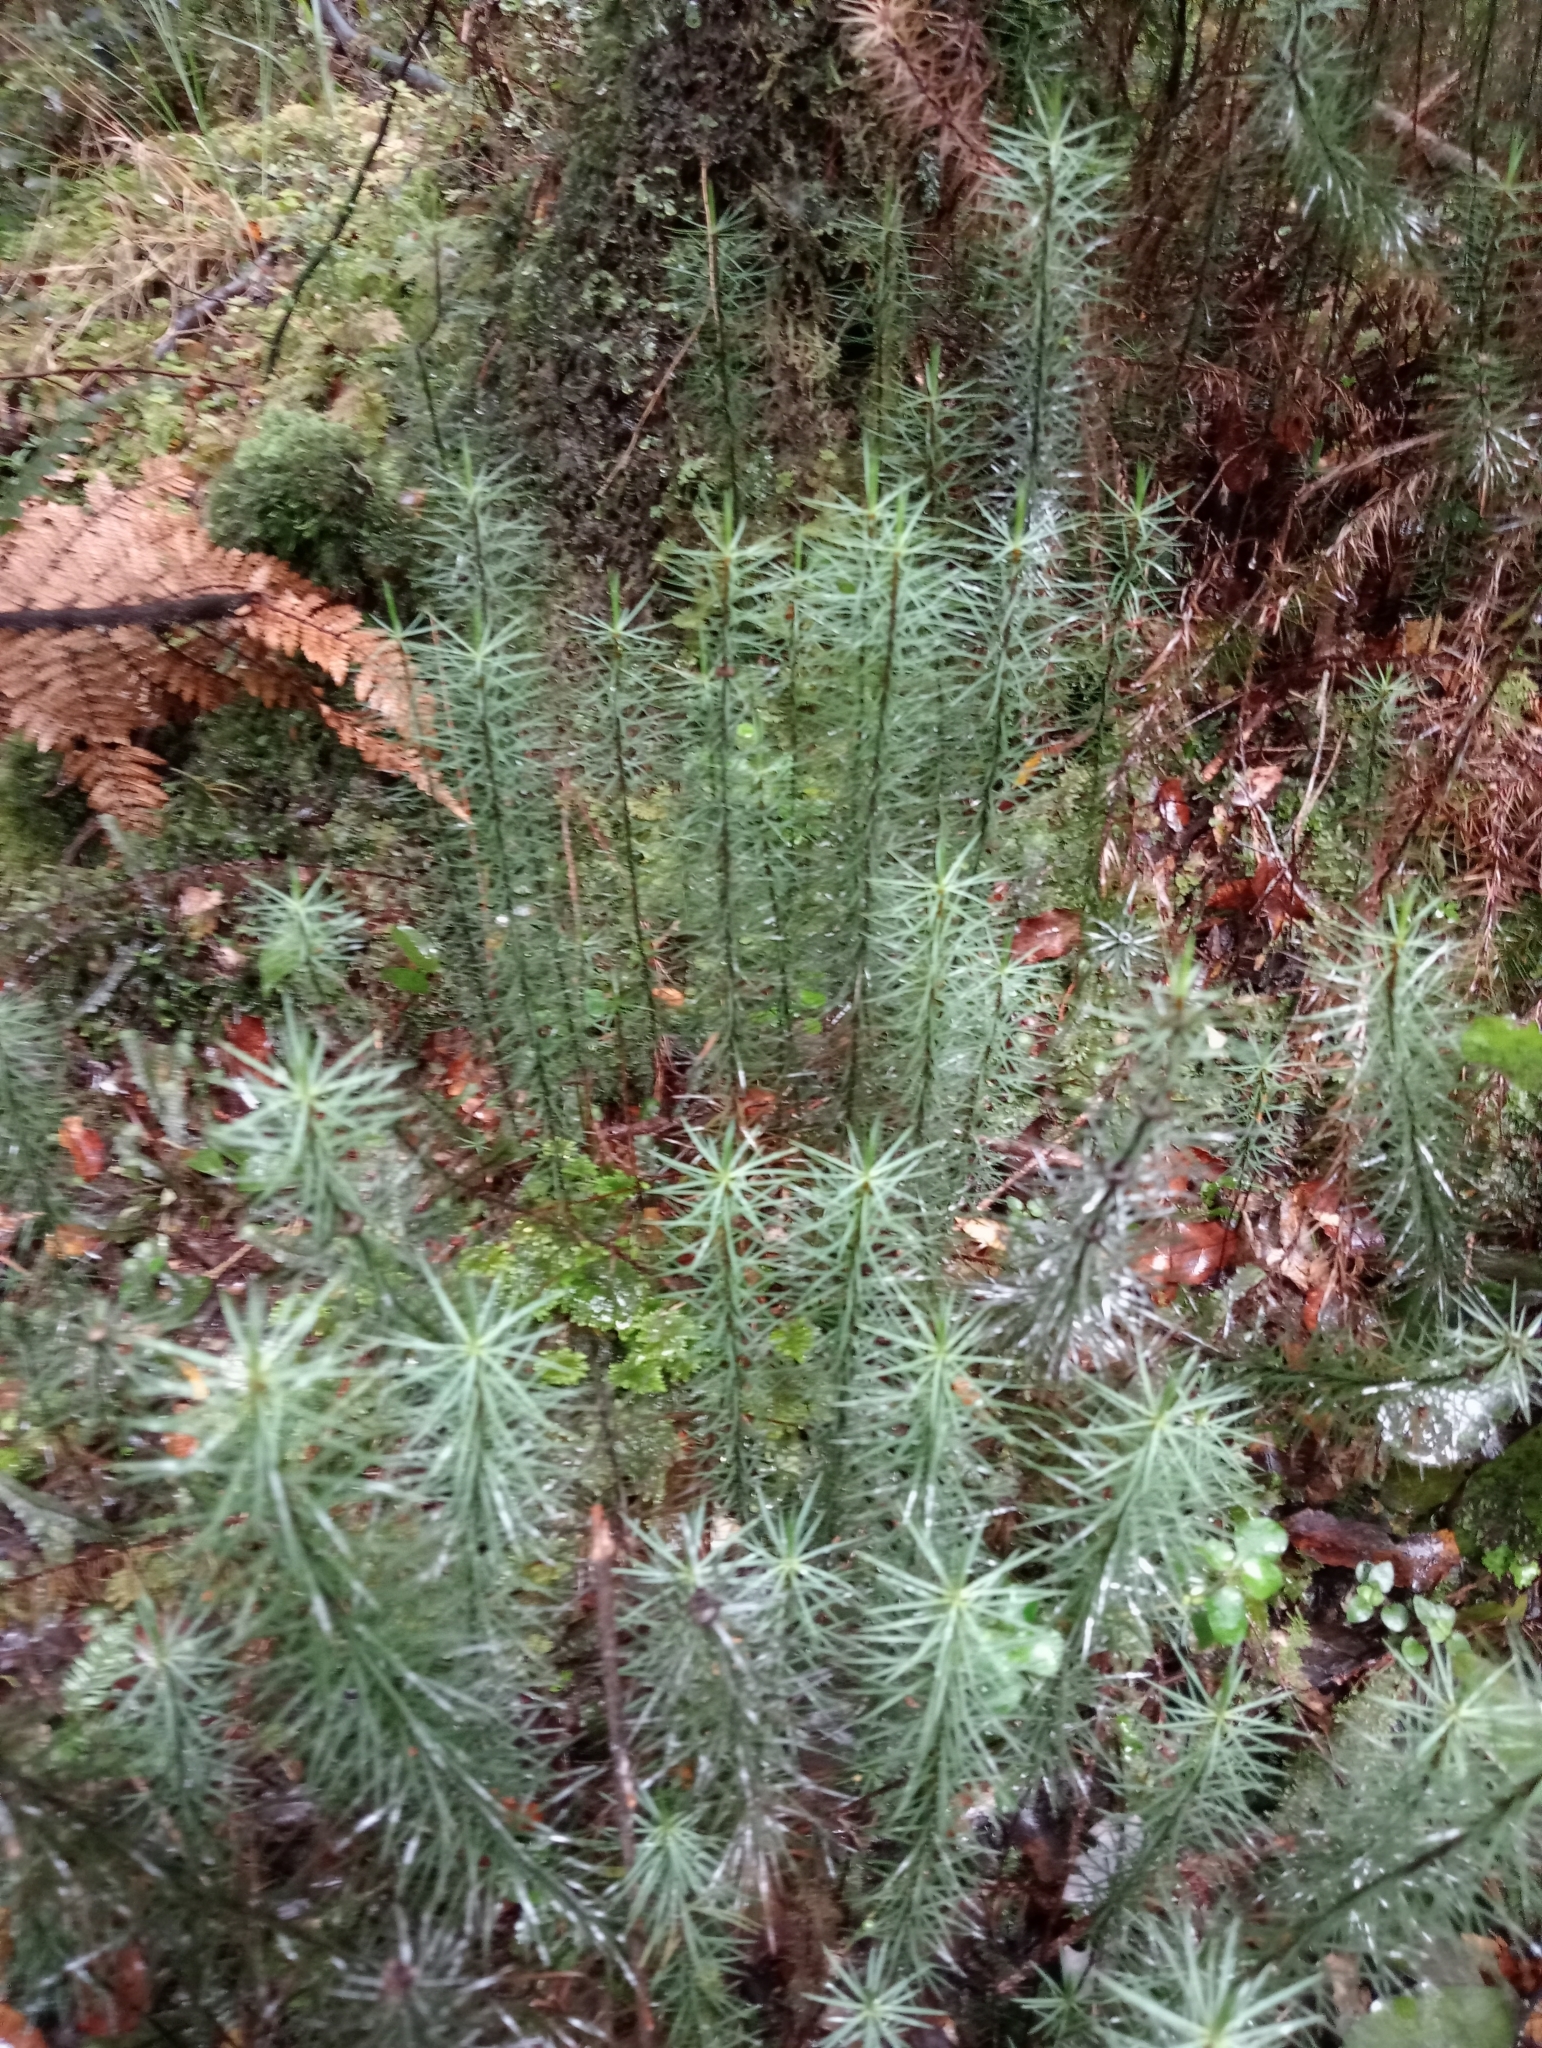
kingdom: Plantae
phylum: Bryophyta
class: Polytrichopsida
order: Polytrichales
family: Polytrichaceae
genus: Dawsonia
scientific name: Dawsonia superba
